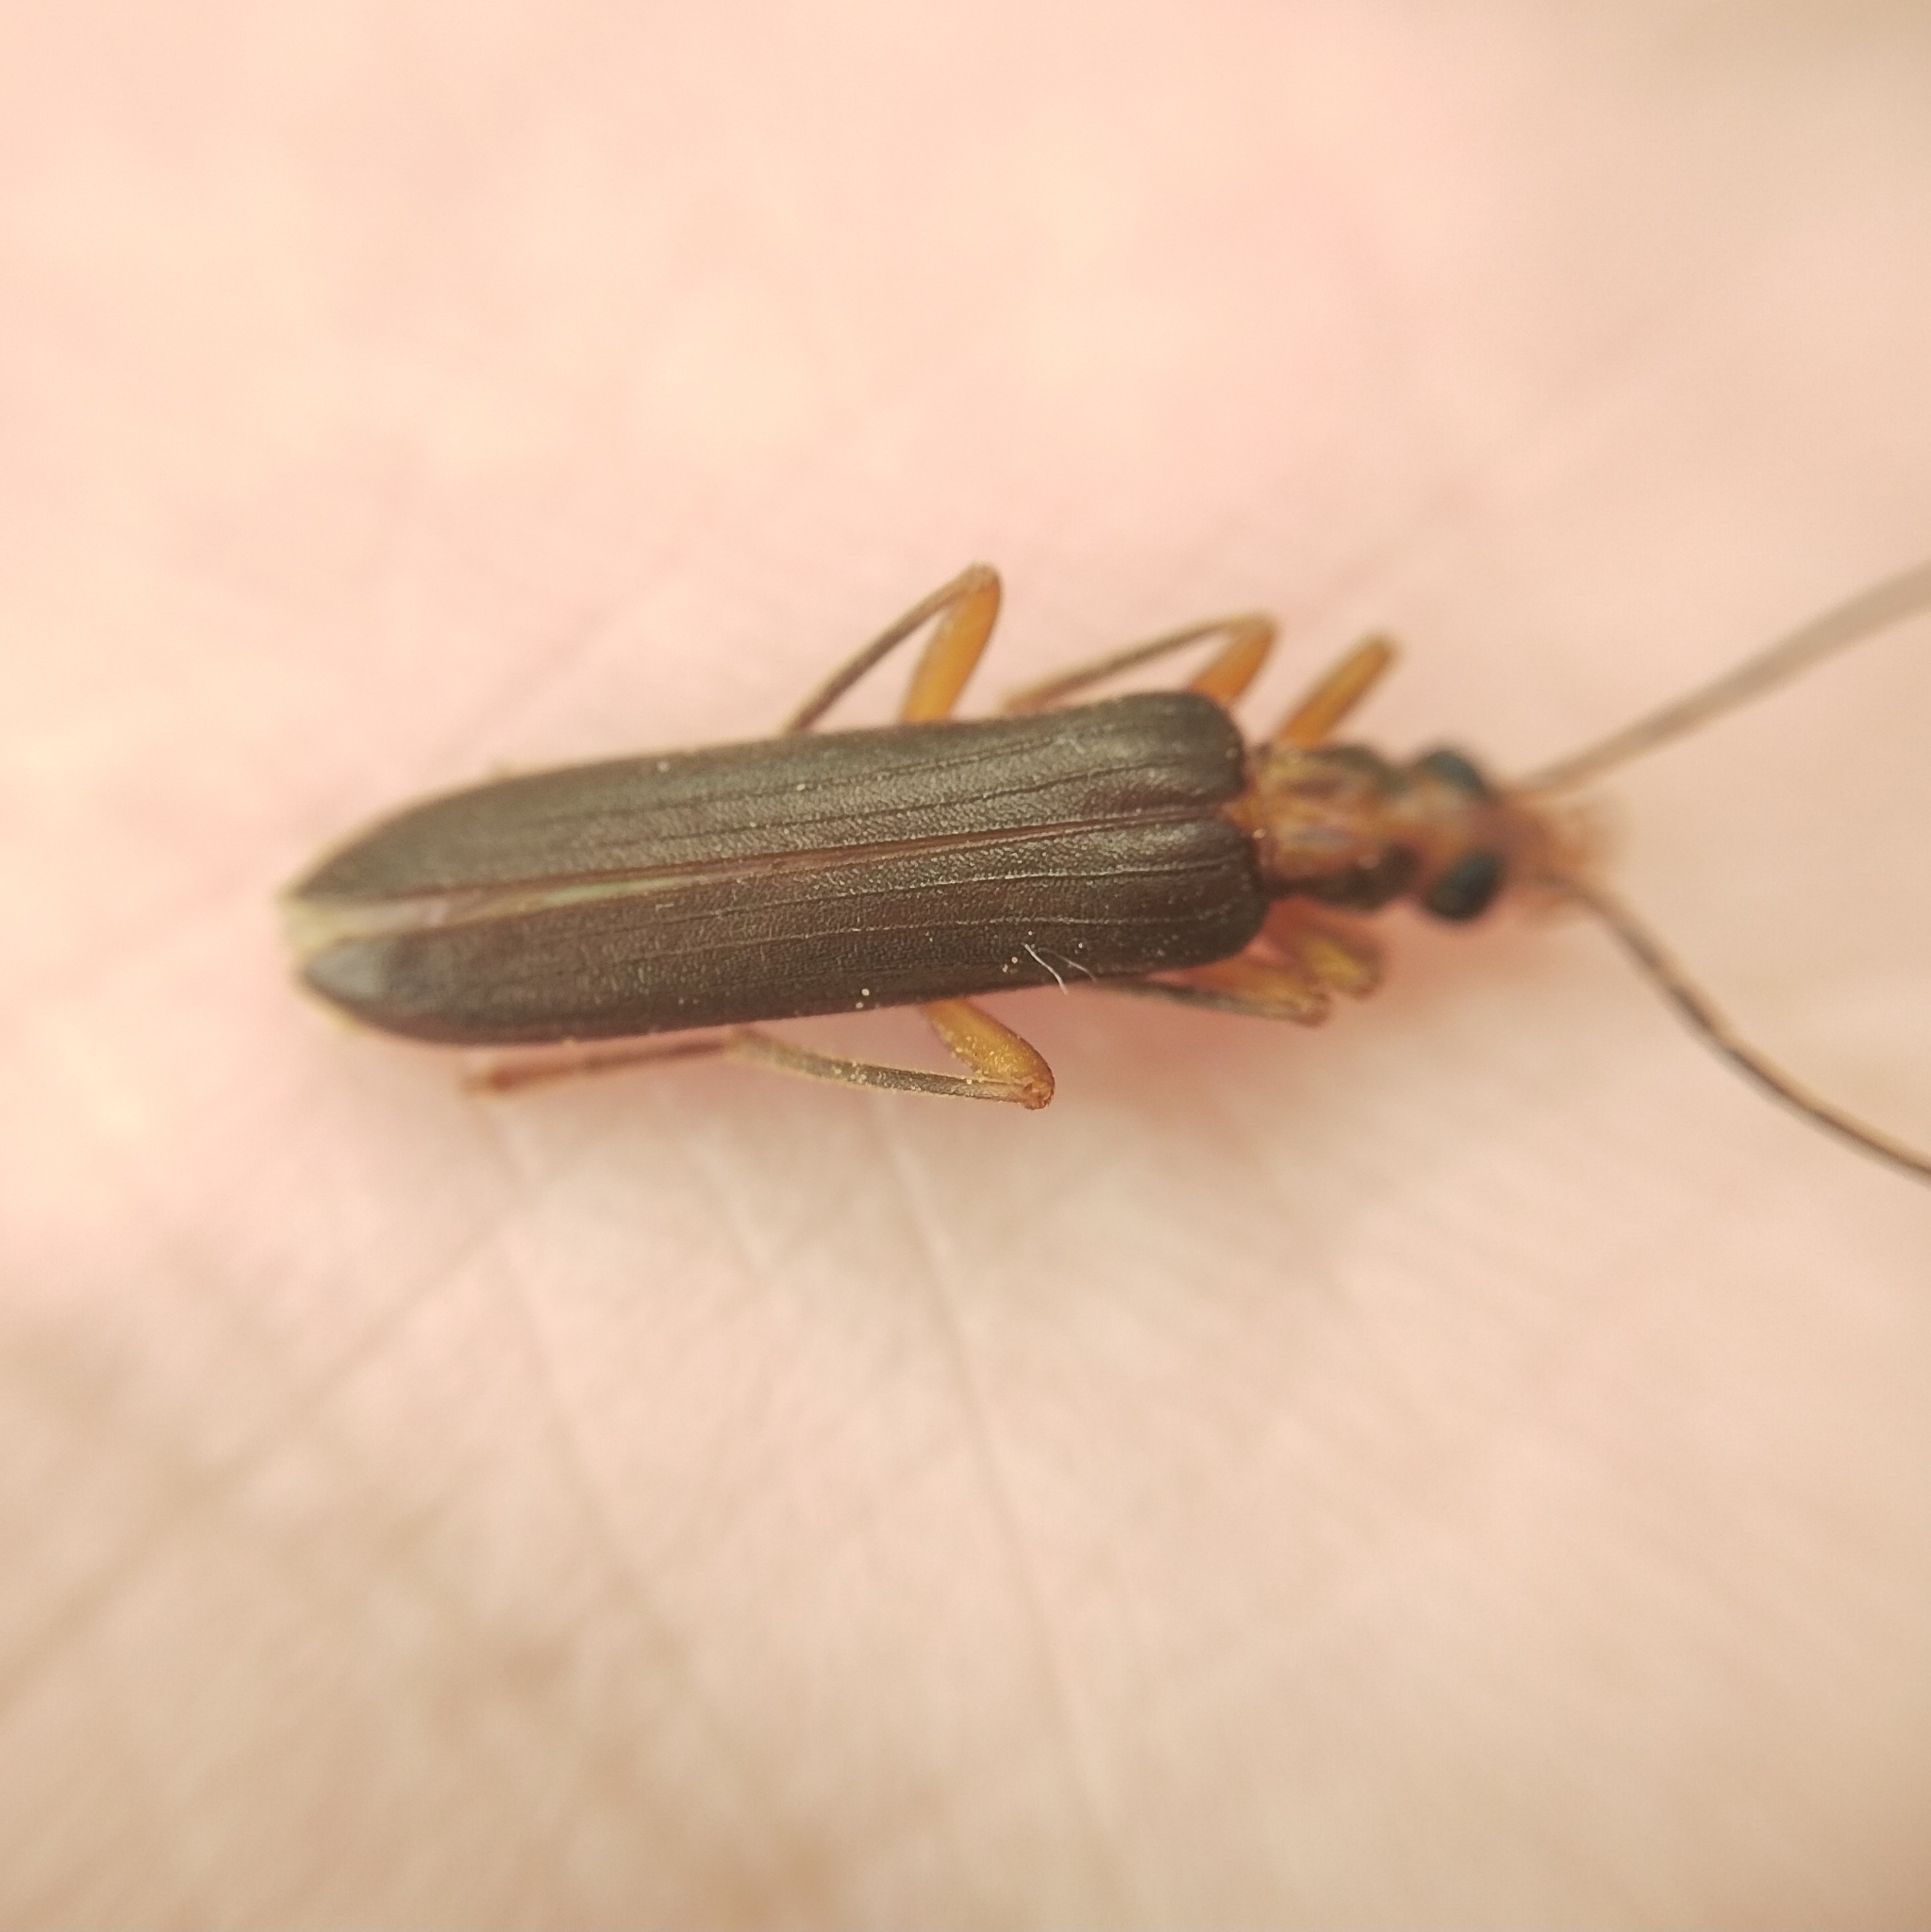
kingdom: Animalia
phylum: Arthropoda
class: Insecta
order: Coleoptera
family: Oedemeridae
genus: Nacerdes
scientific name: Nacerdes carniolica
